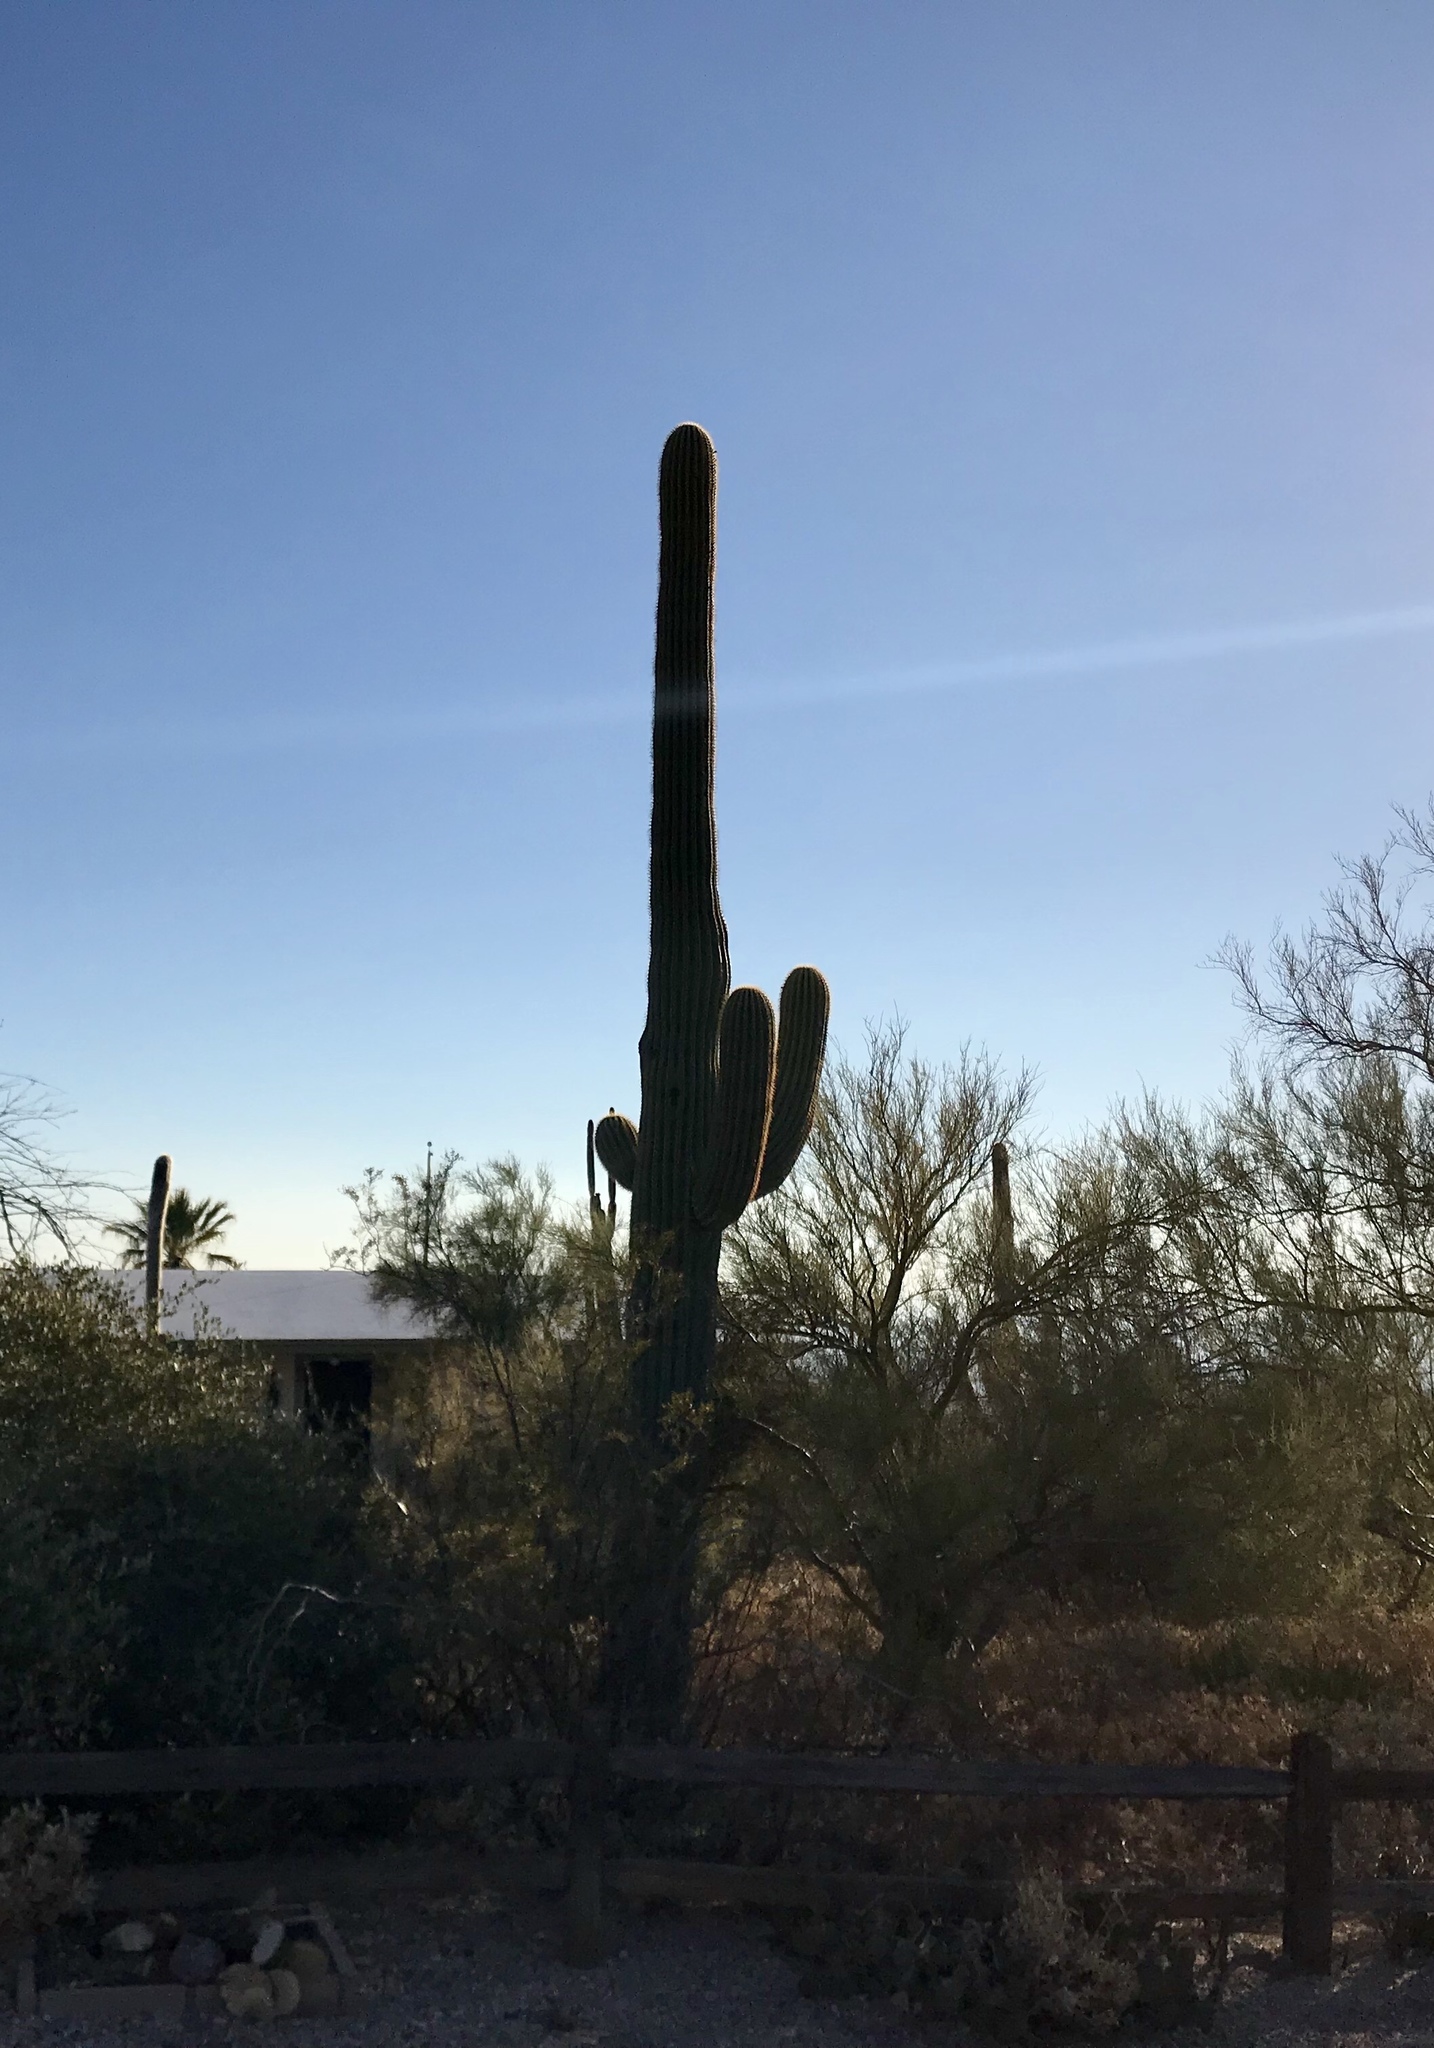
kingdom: Plantae
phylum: Tracheophyta
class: Magnoliopsida
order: Caryophyllales
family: Cactaceae
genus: Carnegiea
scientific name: Carnegiea gigantea
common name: Saguaro
